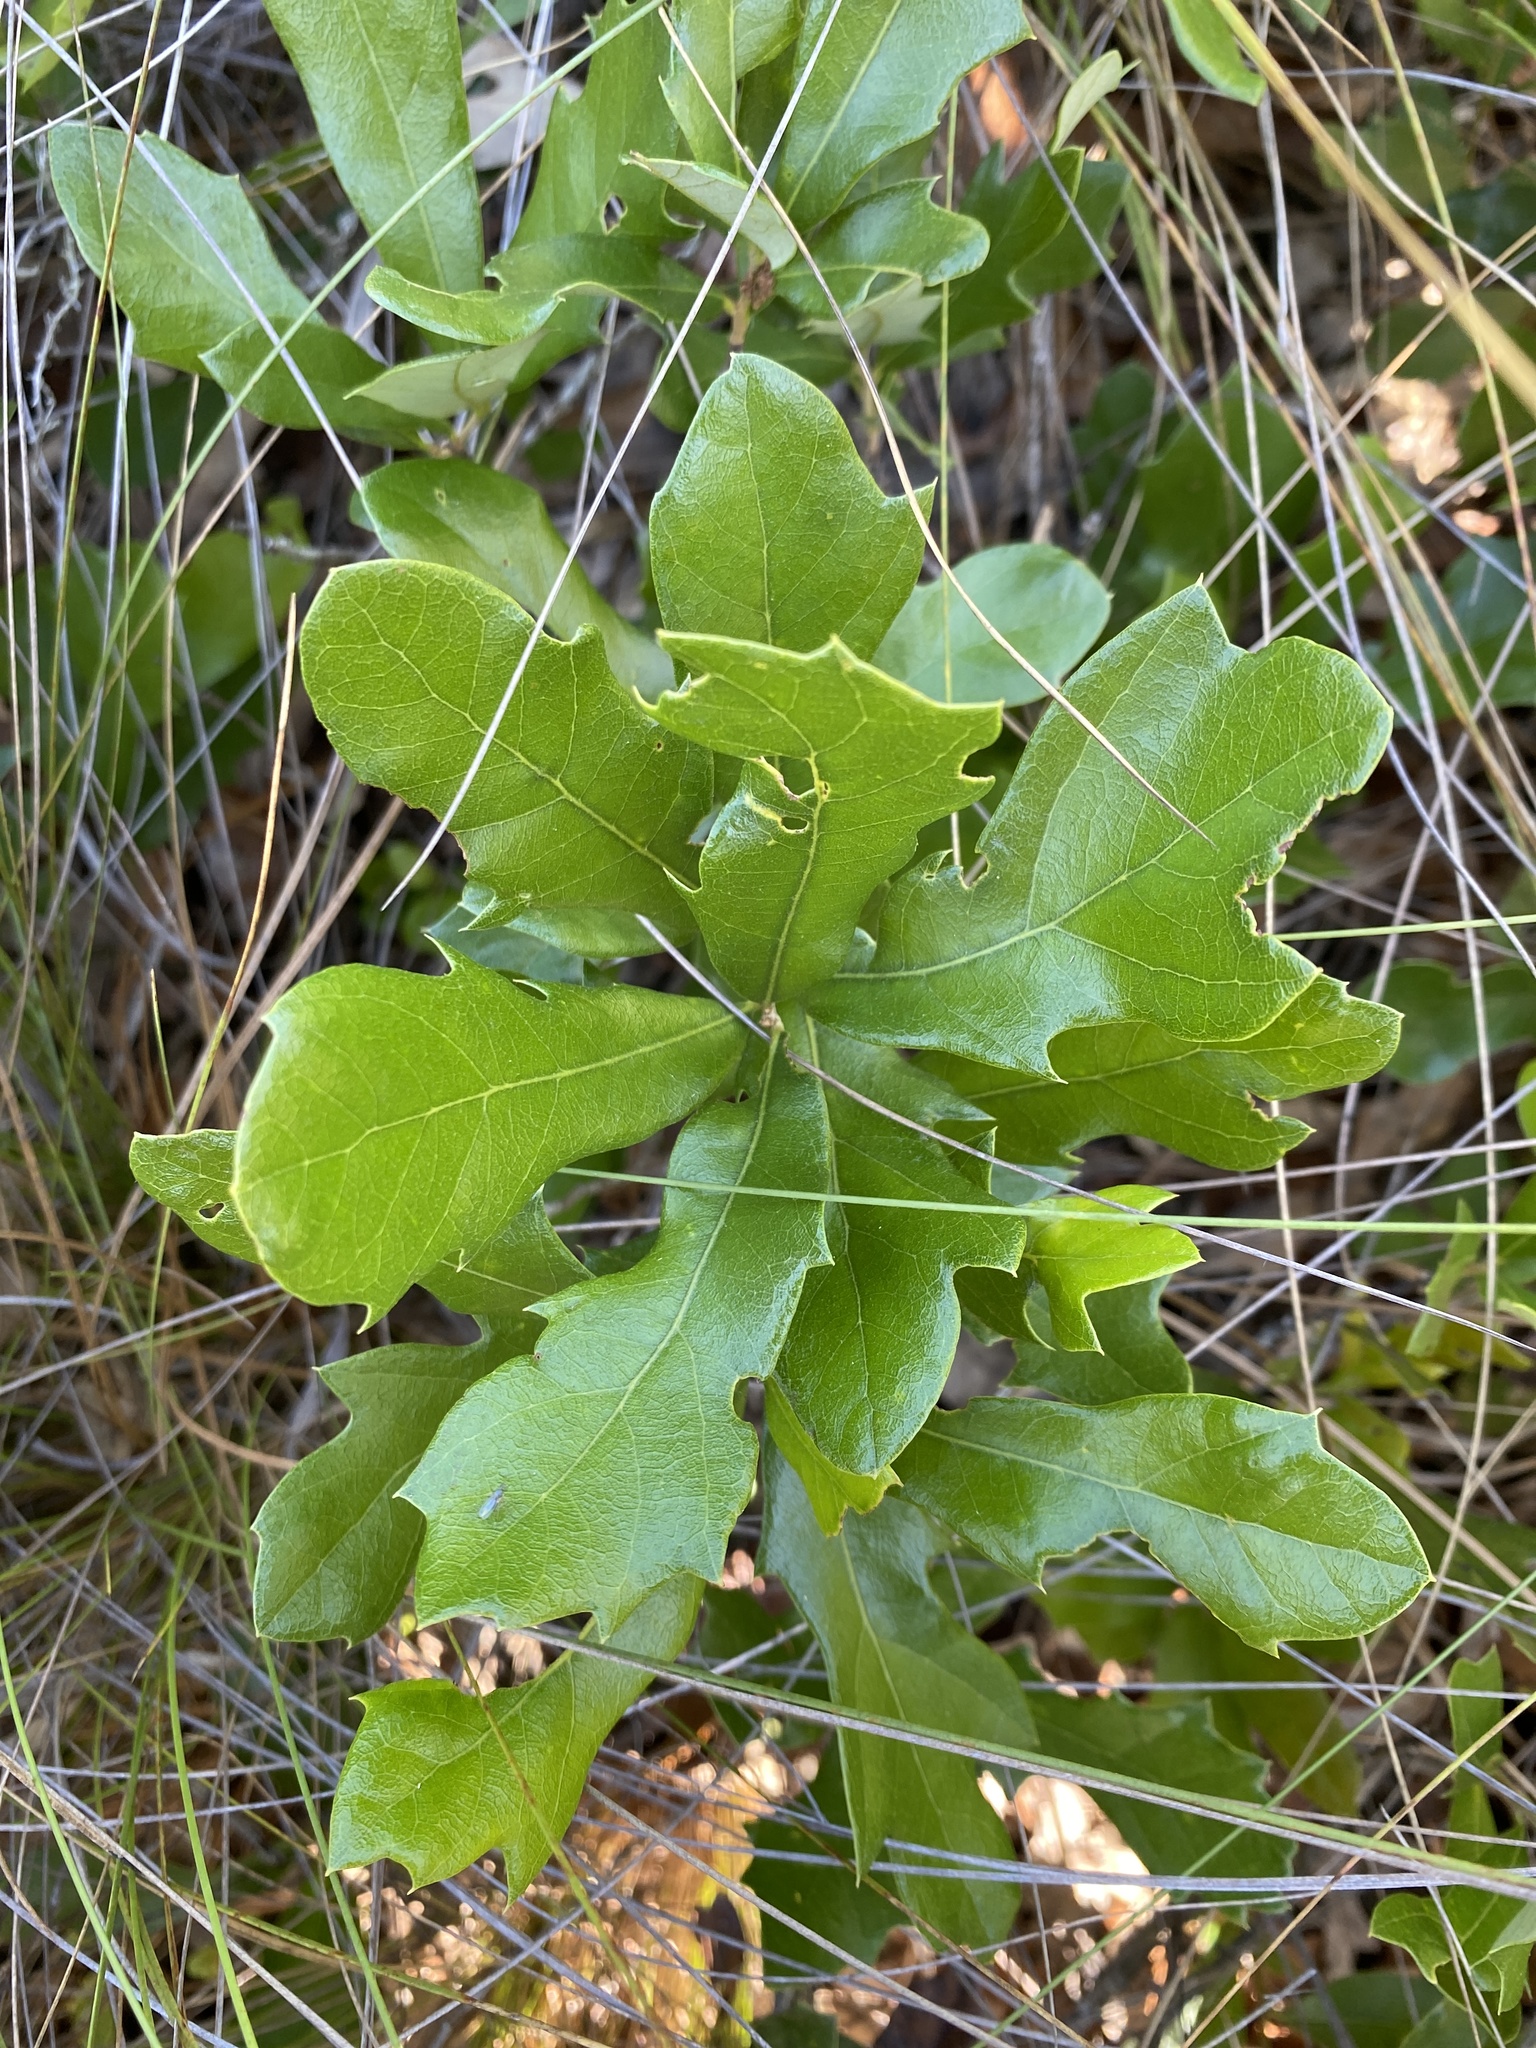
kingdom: Plantae
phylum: Tracheophyta
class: Magnoliopsida
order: Fagales
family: Fagaceae
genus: Quercus
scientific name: Quercus minima
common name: Dwarf live oak
